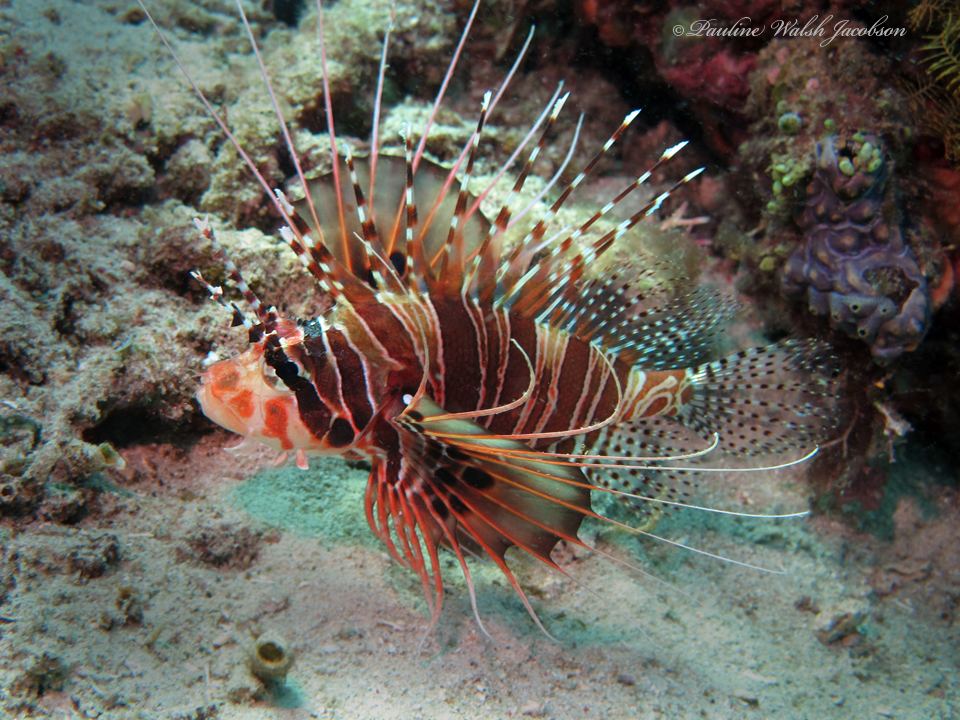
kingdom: Animalia
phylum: Chordata
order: Scorpaeniformes
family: Scorpaenidae
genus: Pterois
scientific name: Pterois antennata
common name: Spotfin lionfish
